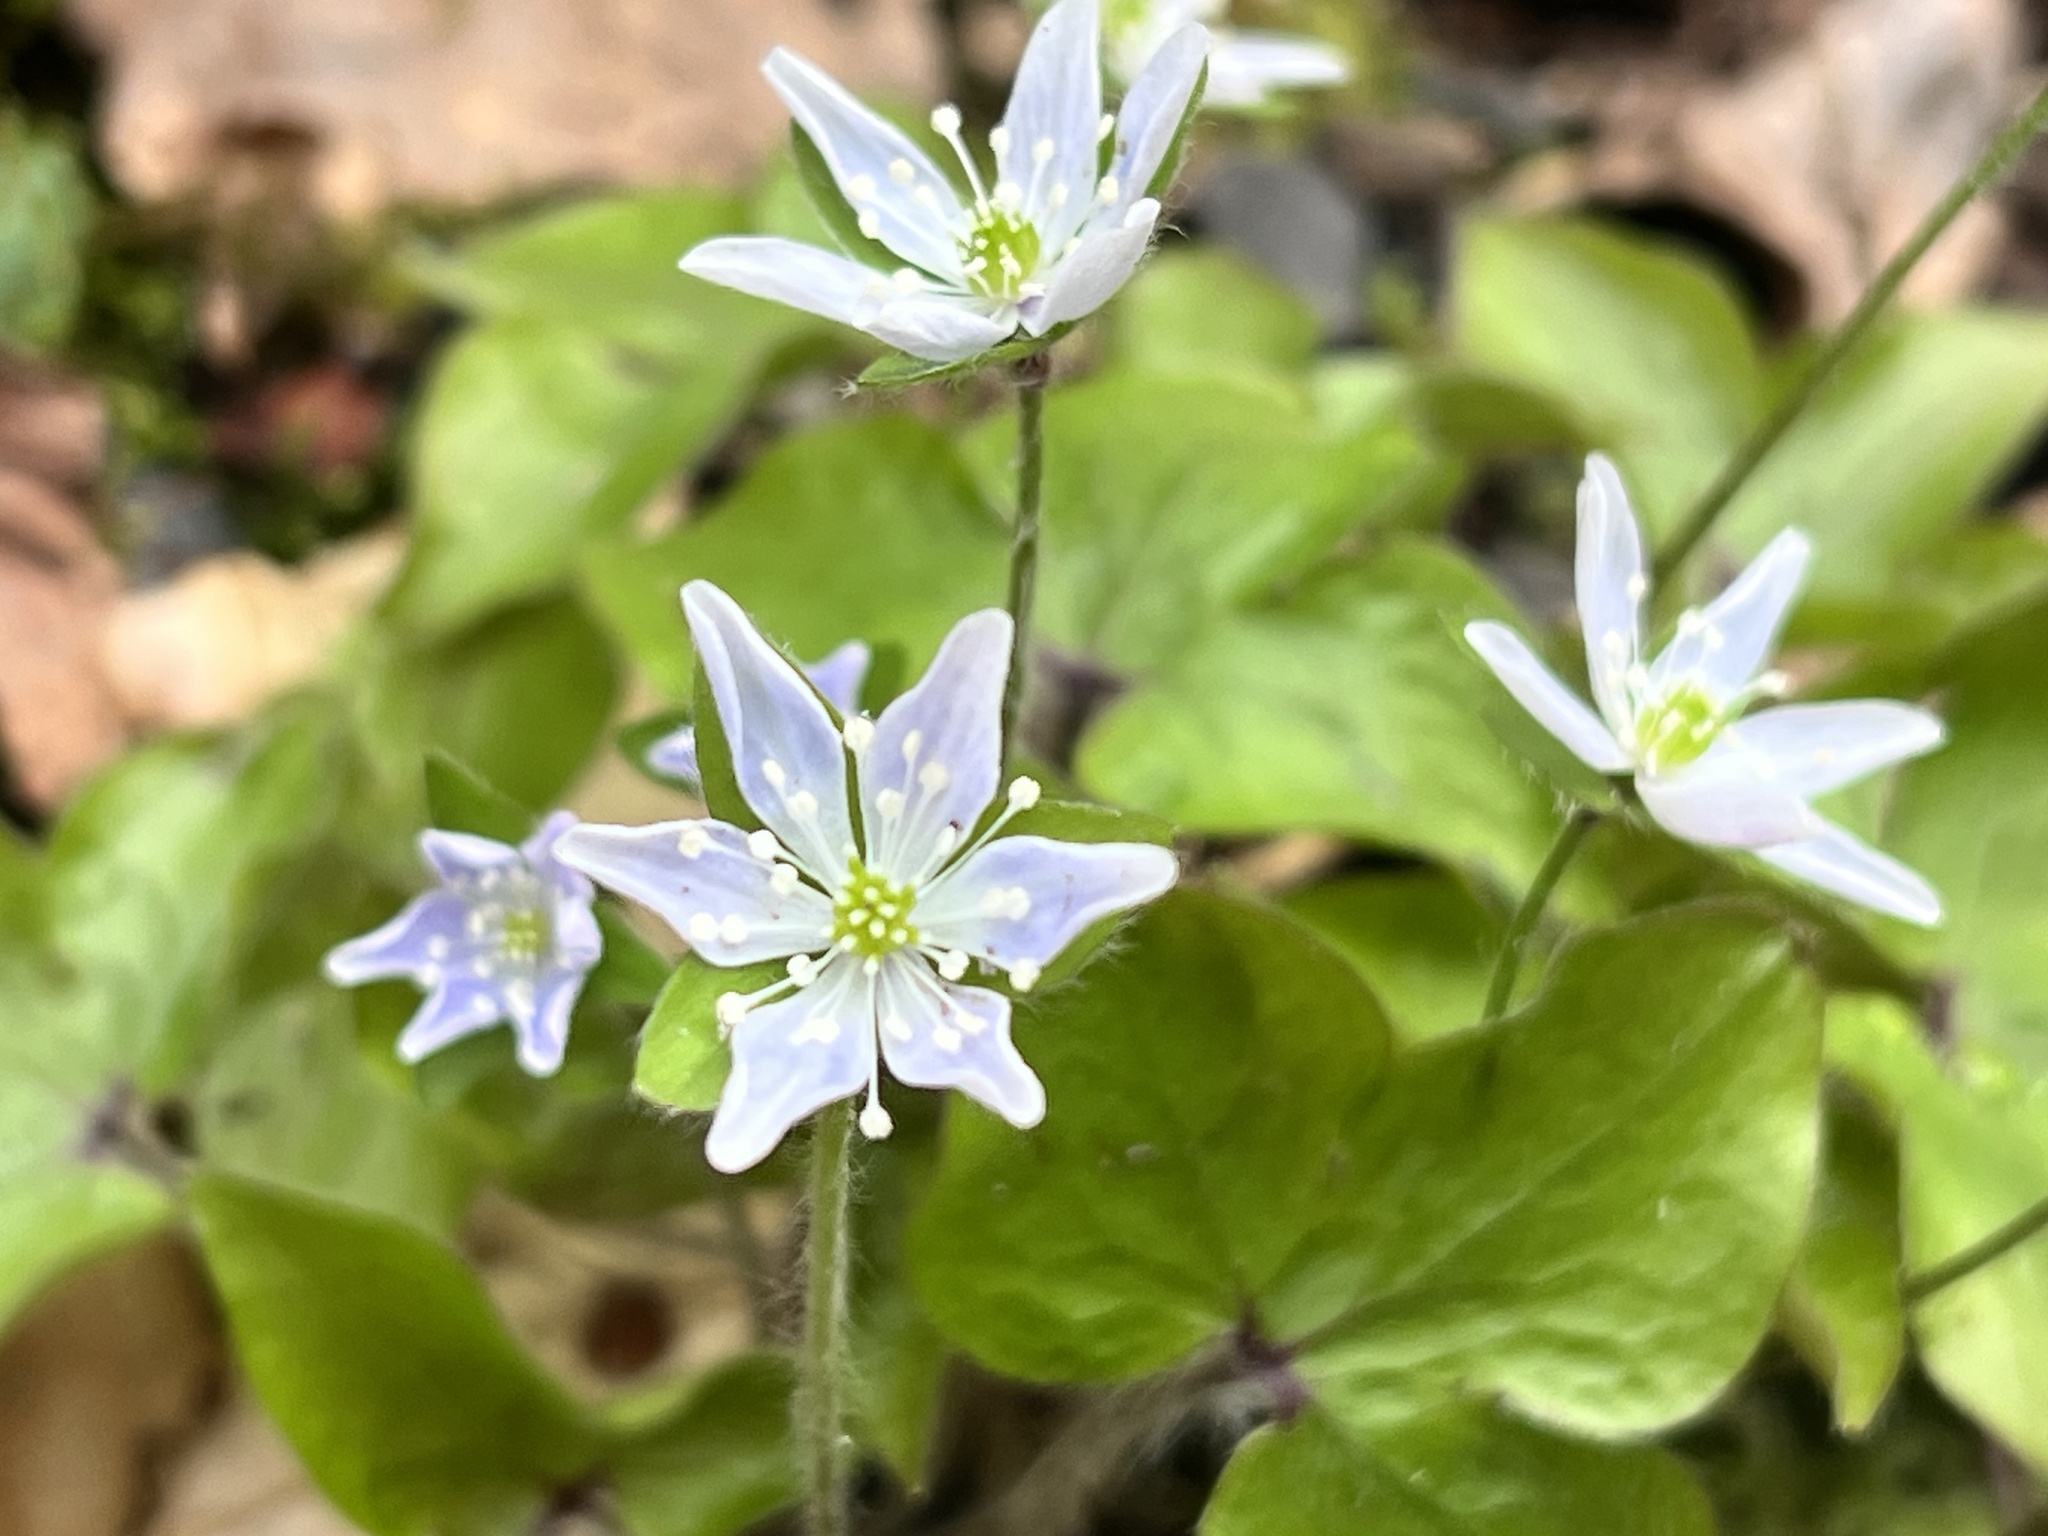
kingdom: Plantae
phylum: Tracheophyta
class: Magnoliopsida
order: Ranunculales
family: Ranunculaceae
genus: Hepatica
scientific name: Hepatica acutiloba
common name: Sharp-lobed hepatica
